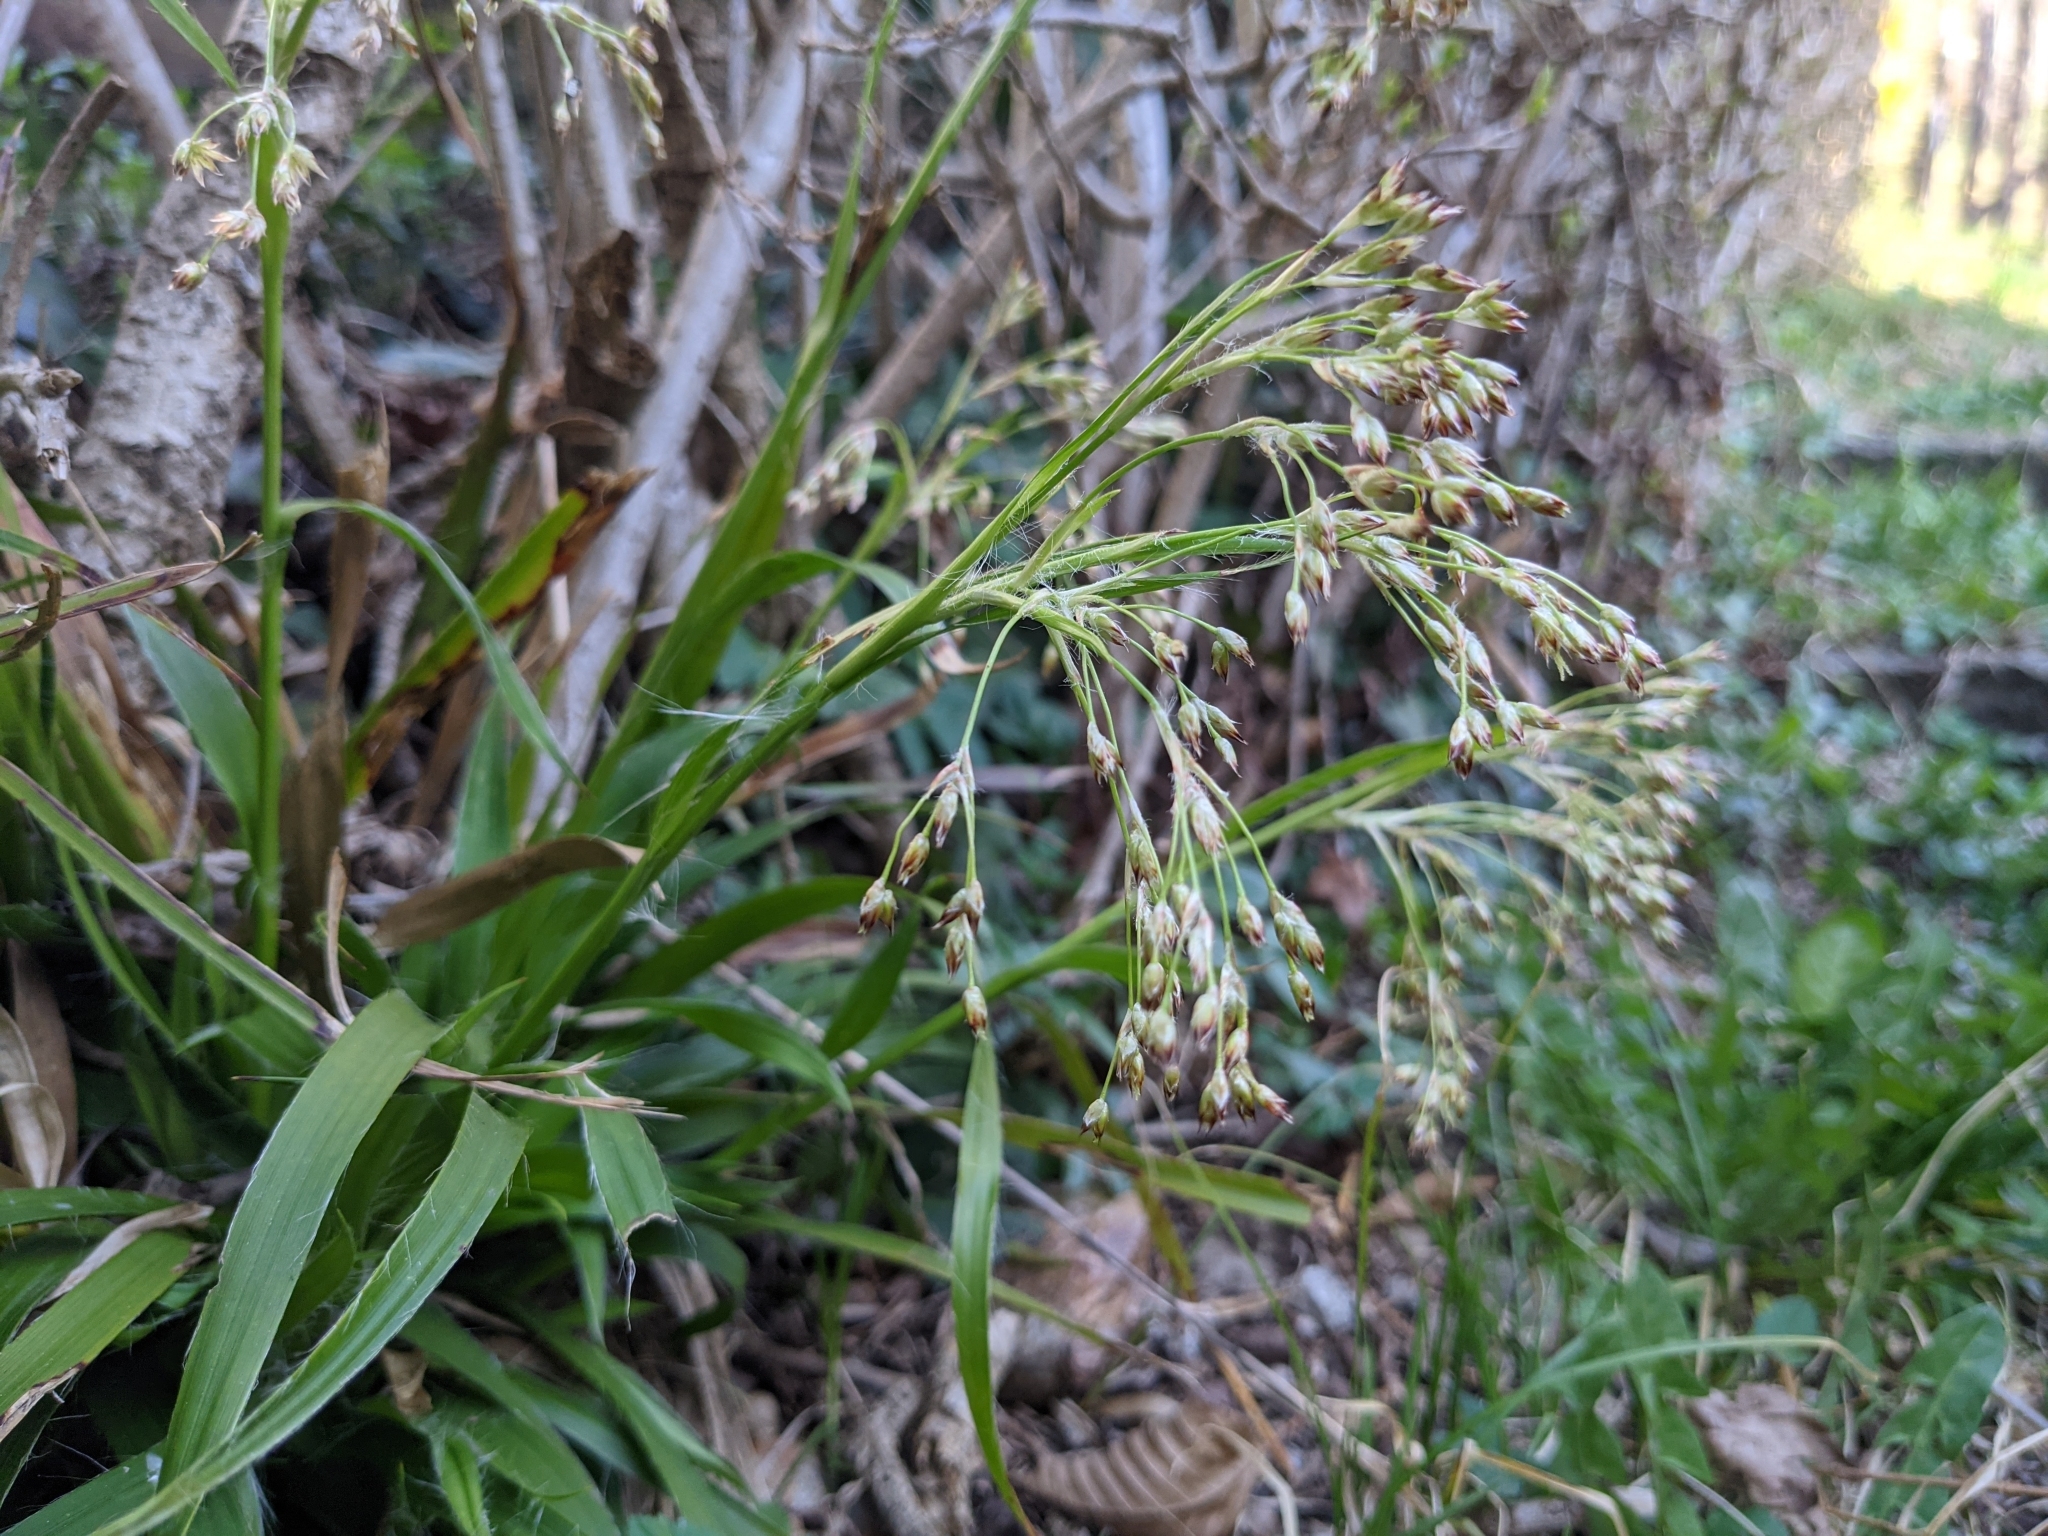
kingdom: Plantae
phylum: Tracheophyta
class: Liliopsida
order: Poales
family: Juncaceae
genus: Luzula
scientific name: Luzula sylvatica
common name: Great wood-rush
